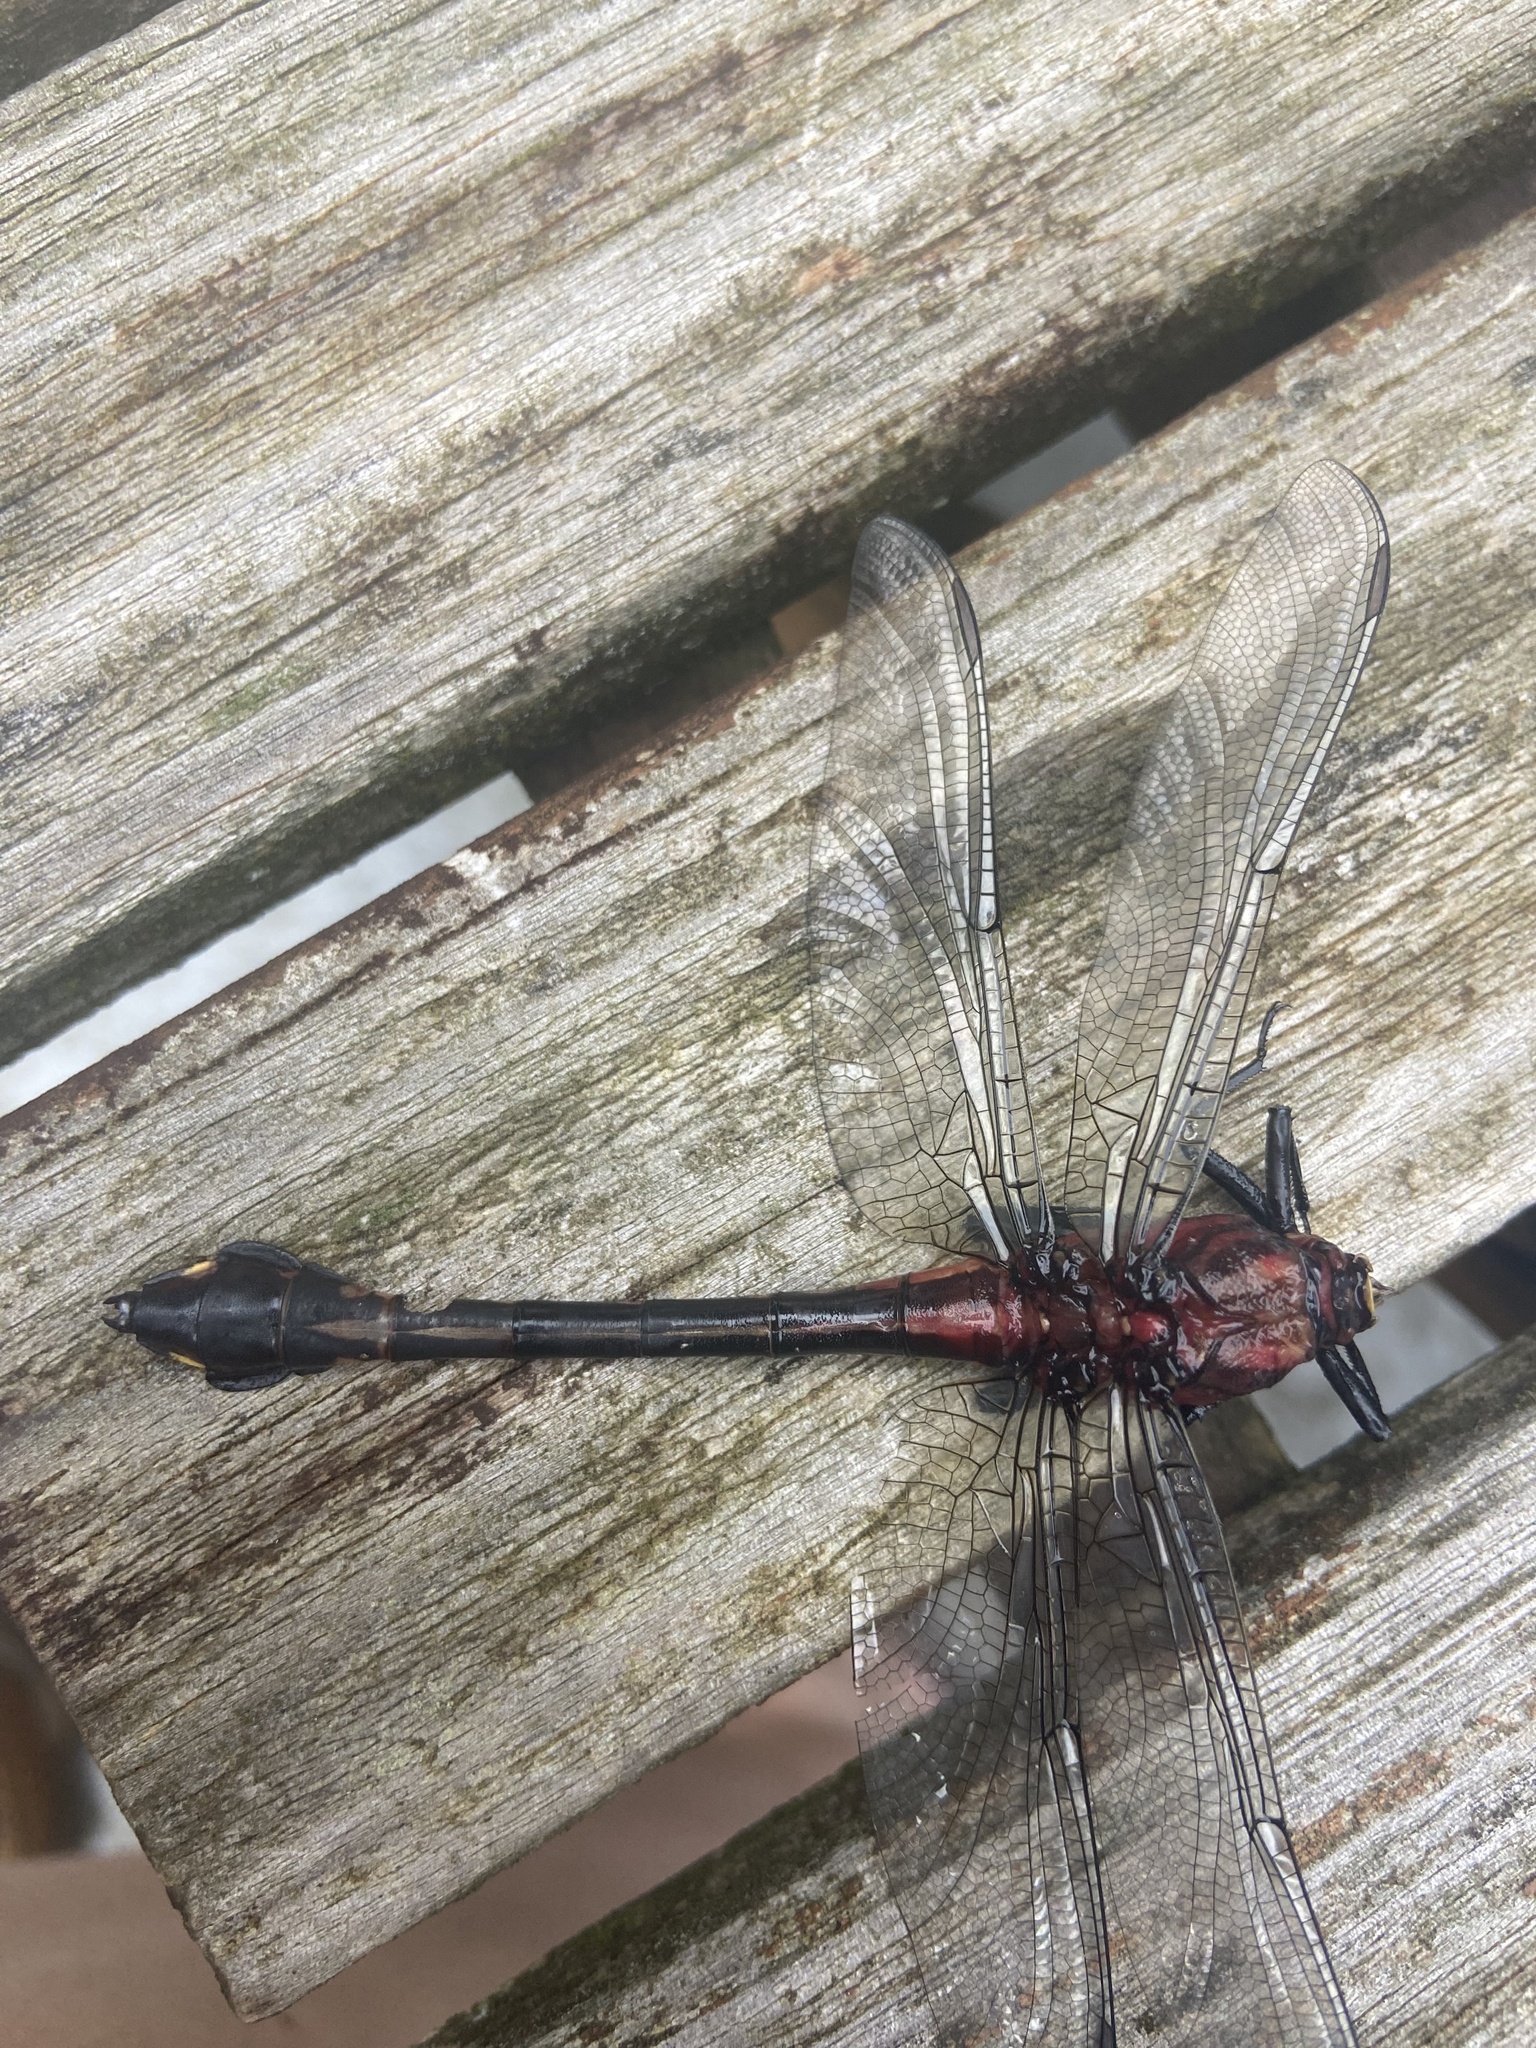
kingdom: Animalia
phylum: Arthropoda
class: Insecta
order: Odonata
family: Gomphidae
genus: Gomphurus
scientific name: Gomphurus dilatatus
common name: Blackwater clubtail
